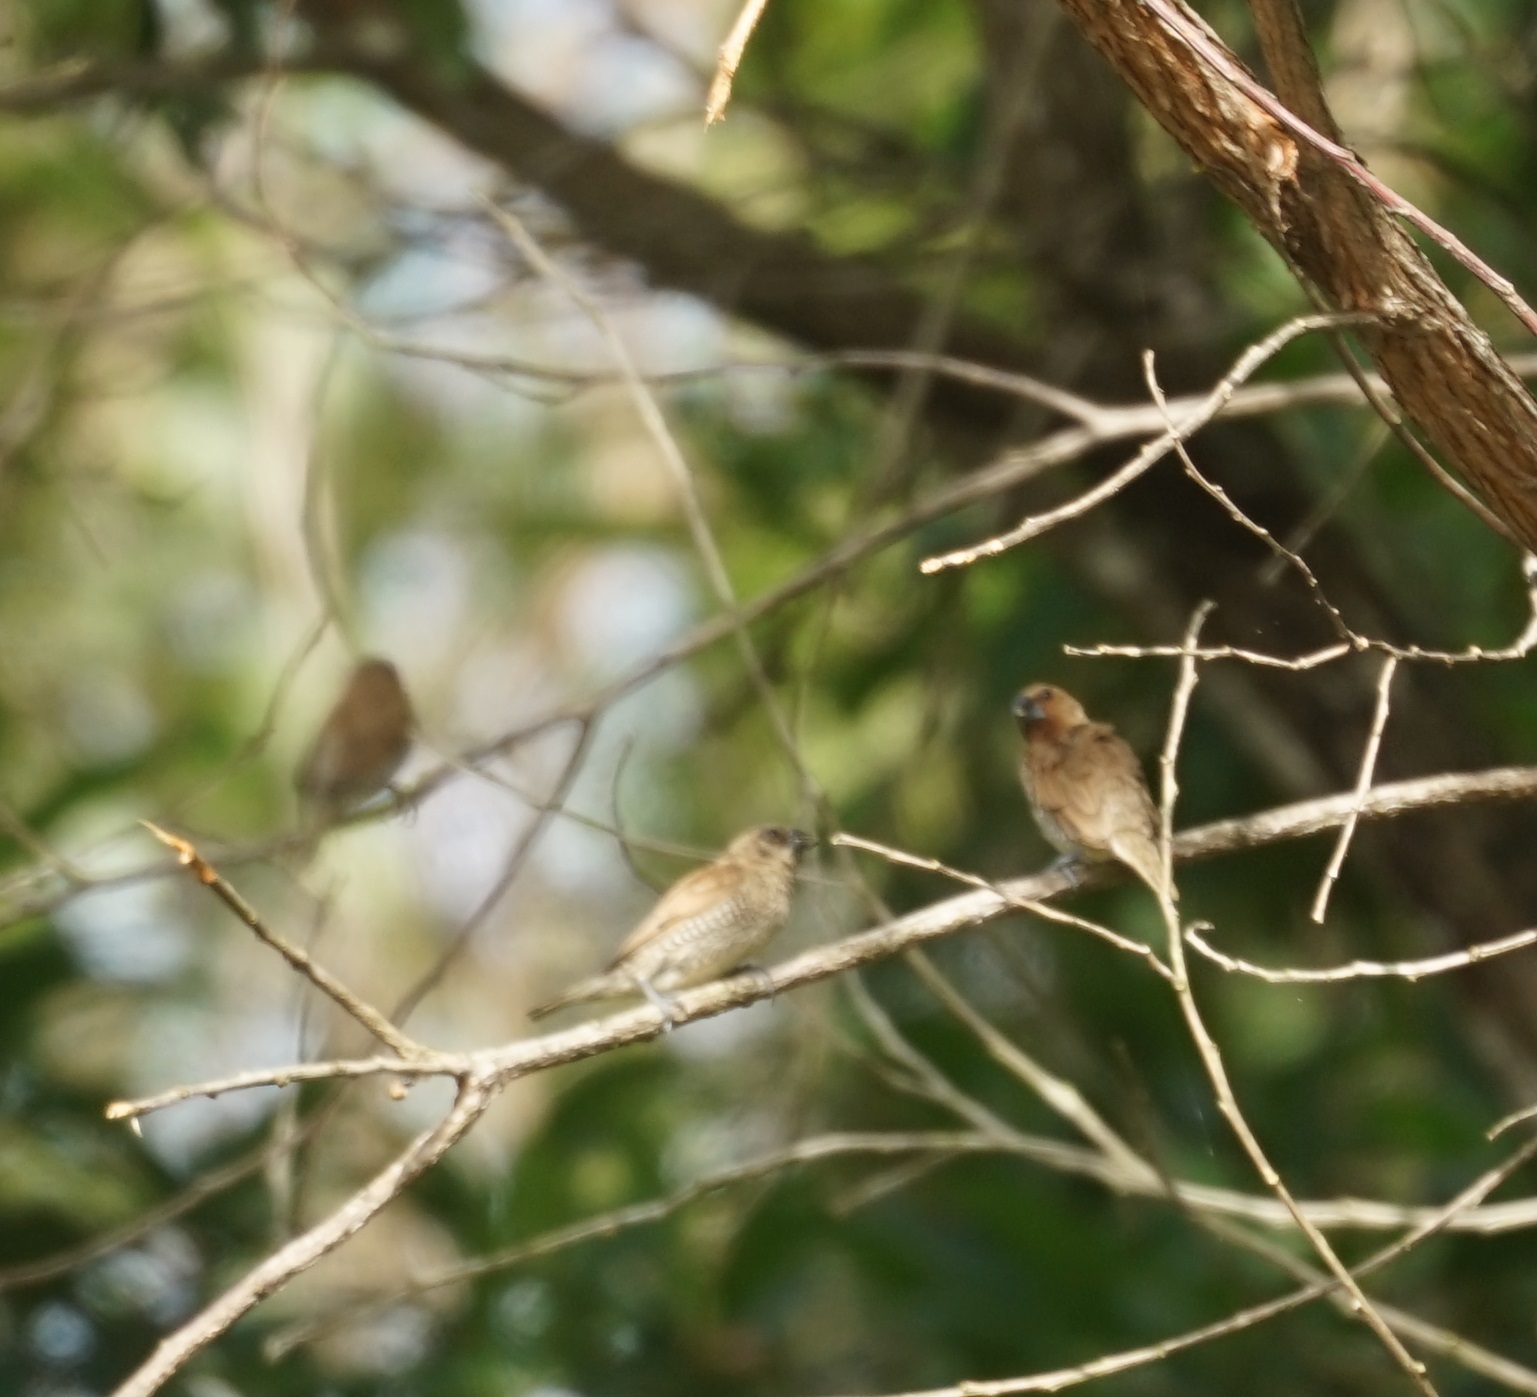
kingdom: Animalia
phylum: Chordata
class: Aves
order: Passeriformes
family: Estrildidae
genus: Lonchura
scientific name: Lonchura punctulata
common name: Scaly-breasted munia
